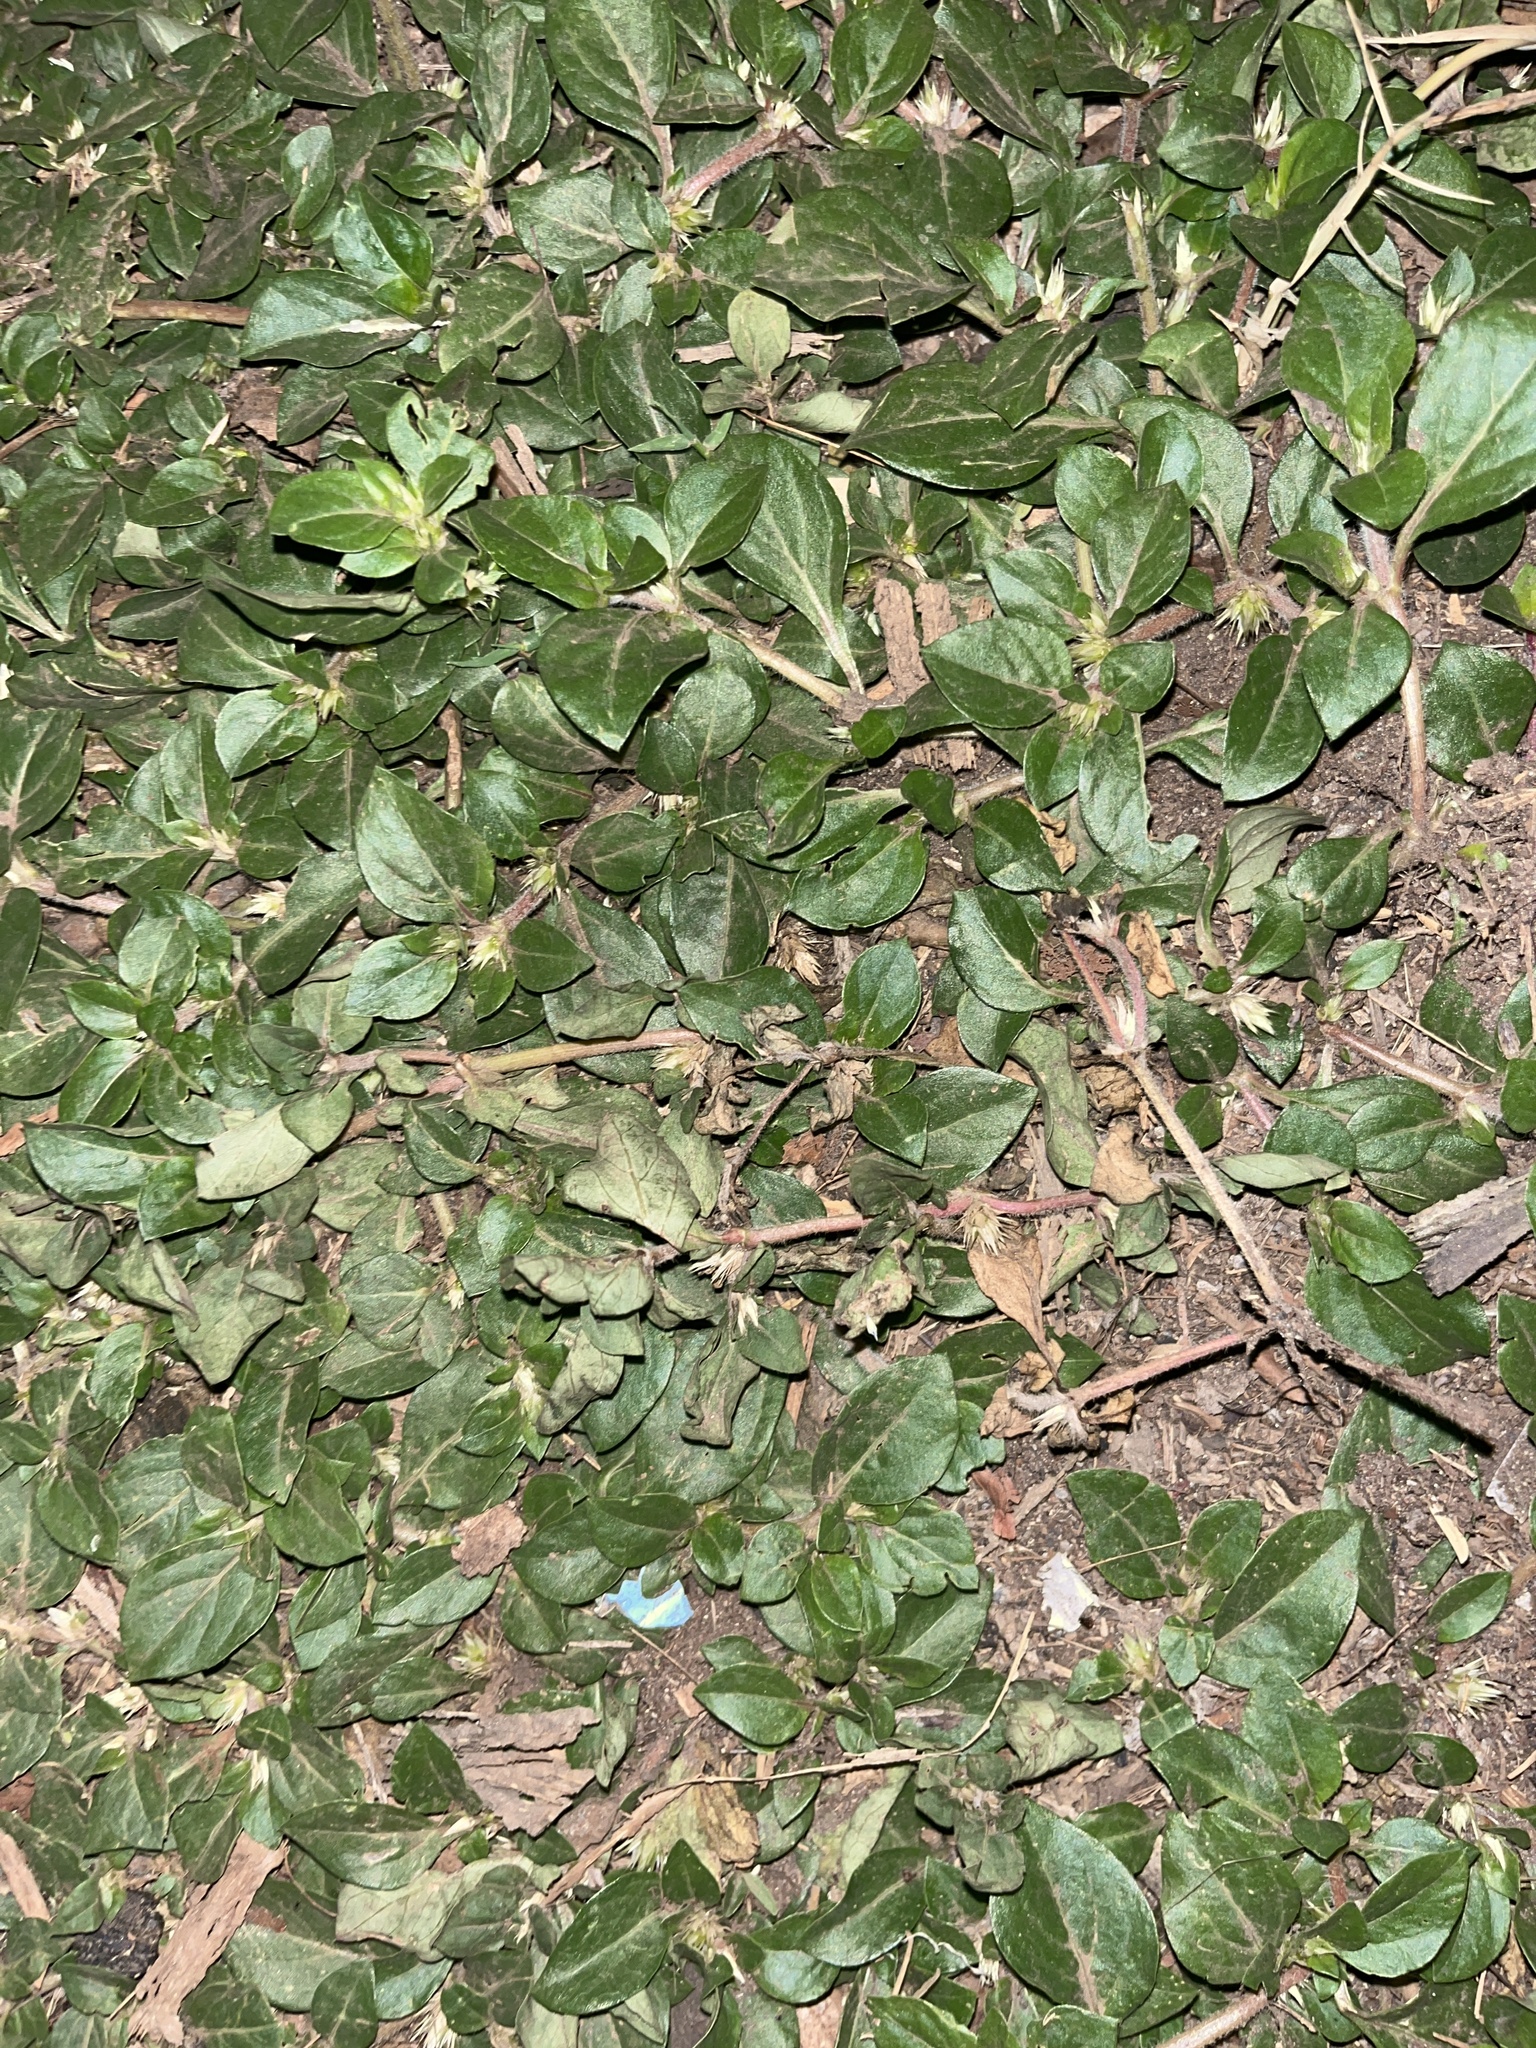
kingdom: Plantae
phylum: Tracheophyta
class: Magnoliopsida
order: Caryophyllales
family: Amaranthaceae
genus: Alternanthera
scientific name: Alternanthera pungens
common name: Khakiweed
